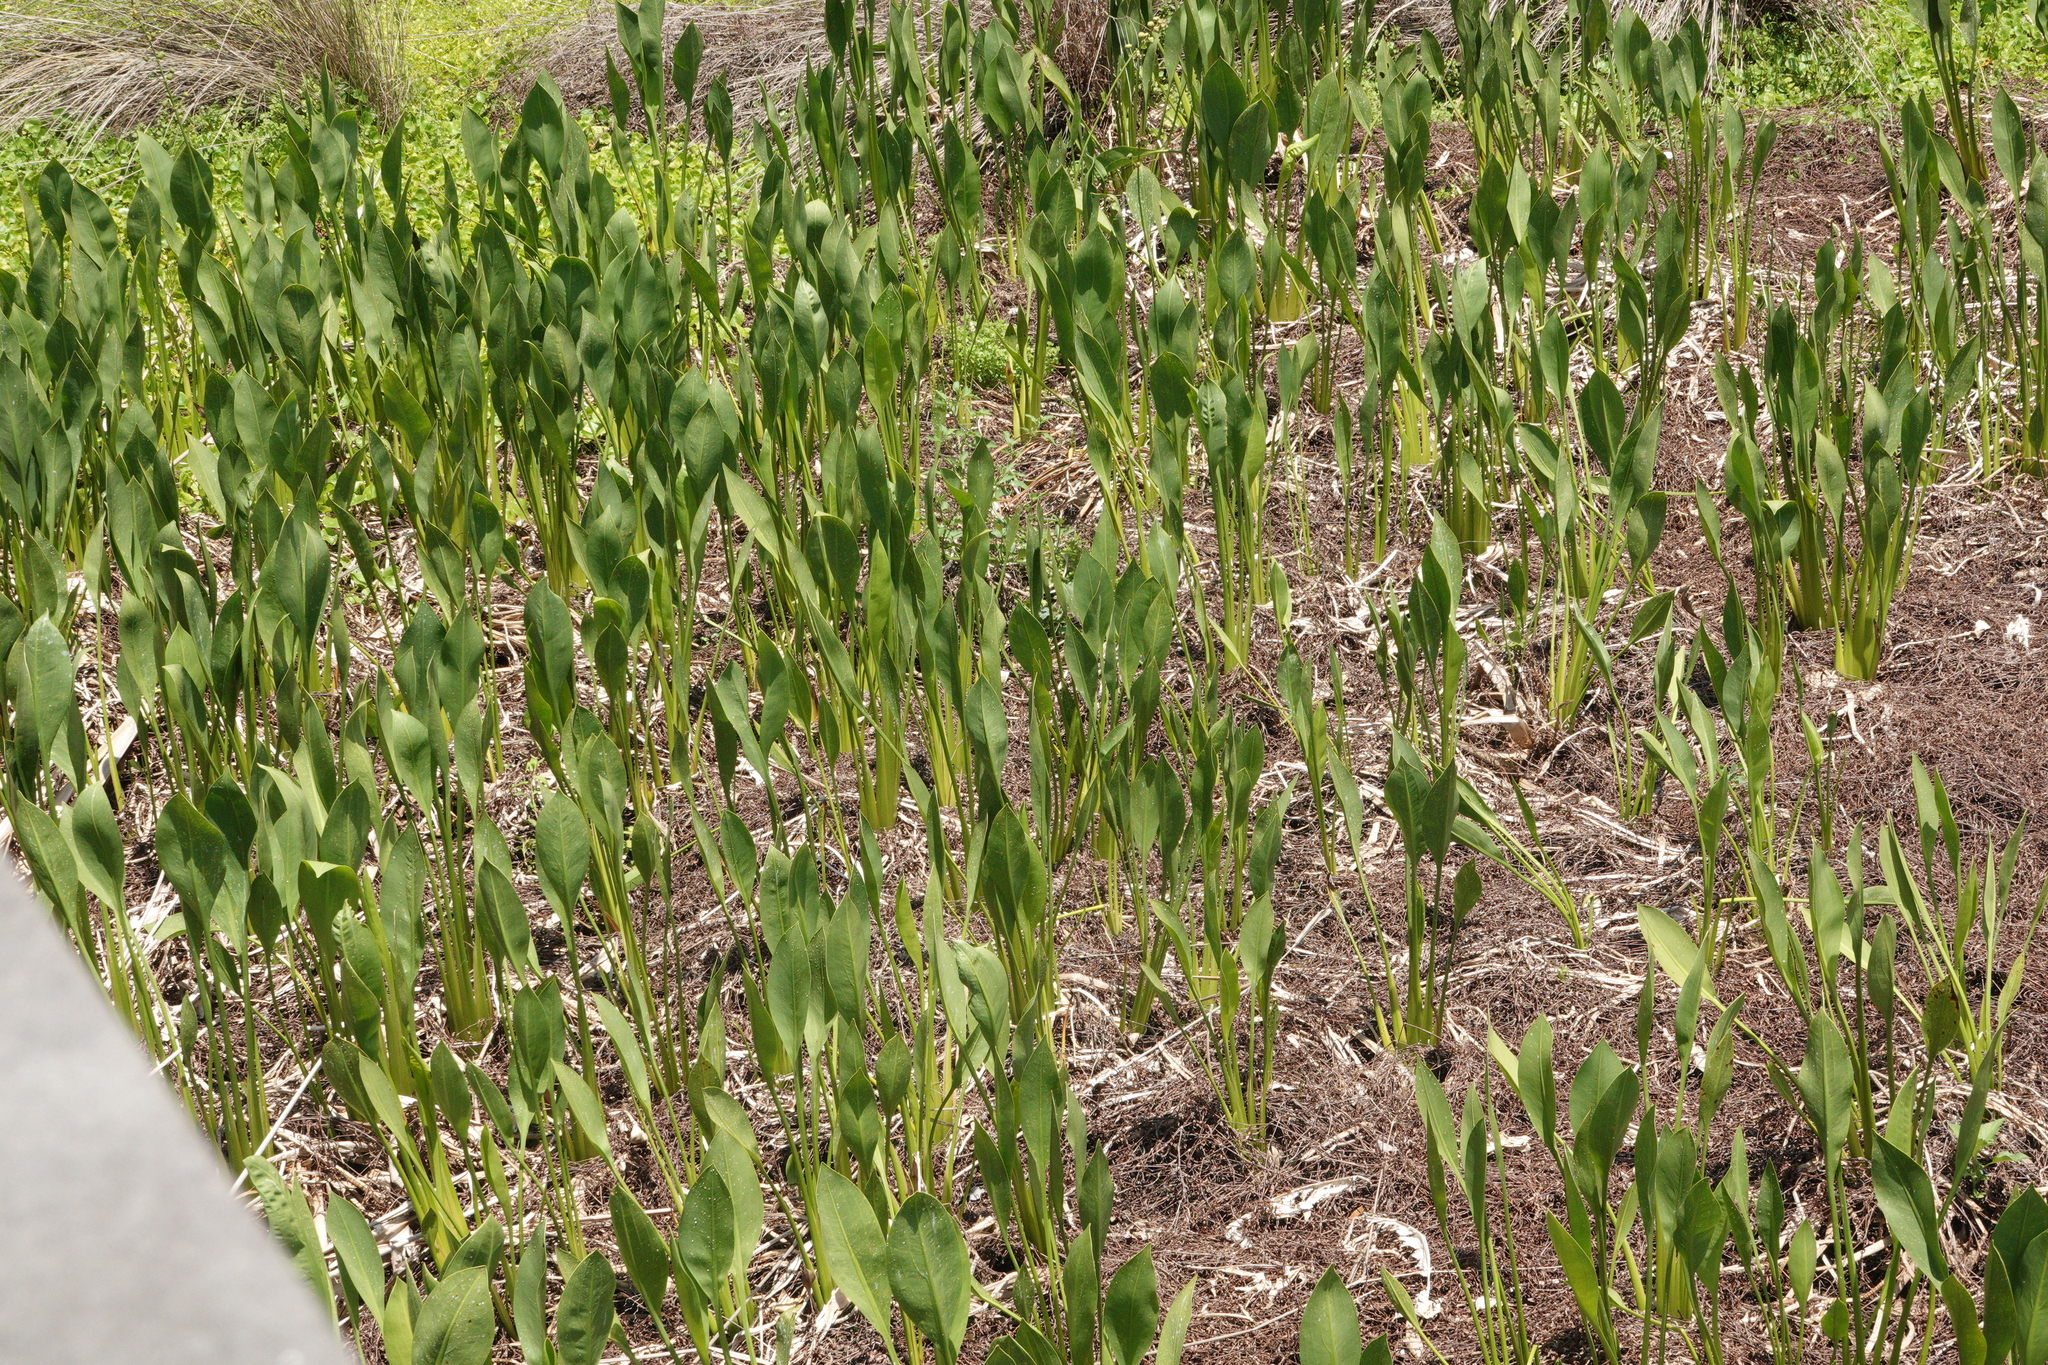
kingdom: Plantae
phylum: Tracheophyta
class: Liliopsida
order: Alismatales
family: Alismataceae
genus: Sagittaria
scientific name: Sagittaria lancifolia
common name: Lance-leaf arrowhead
